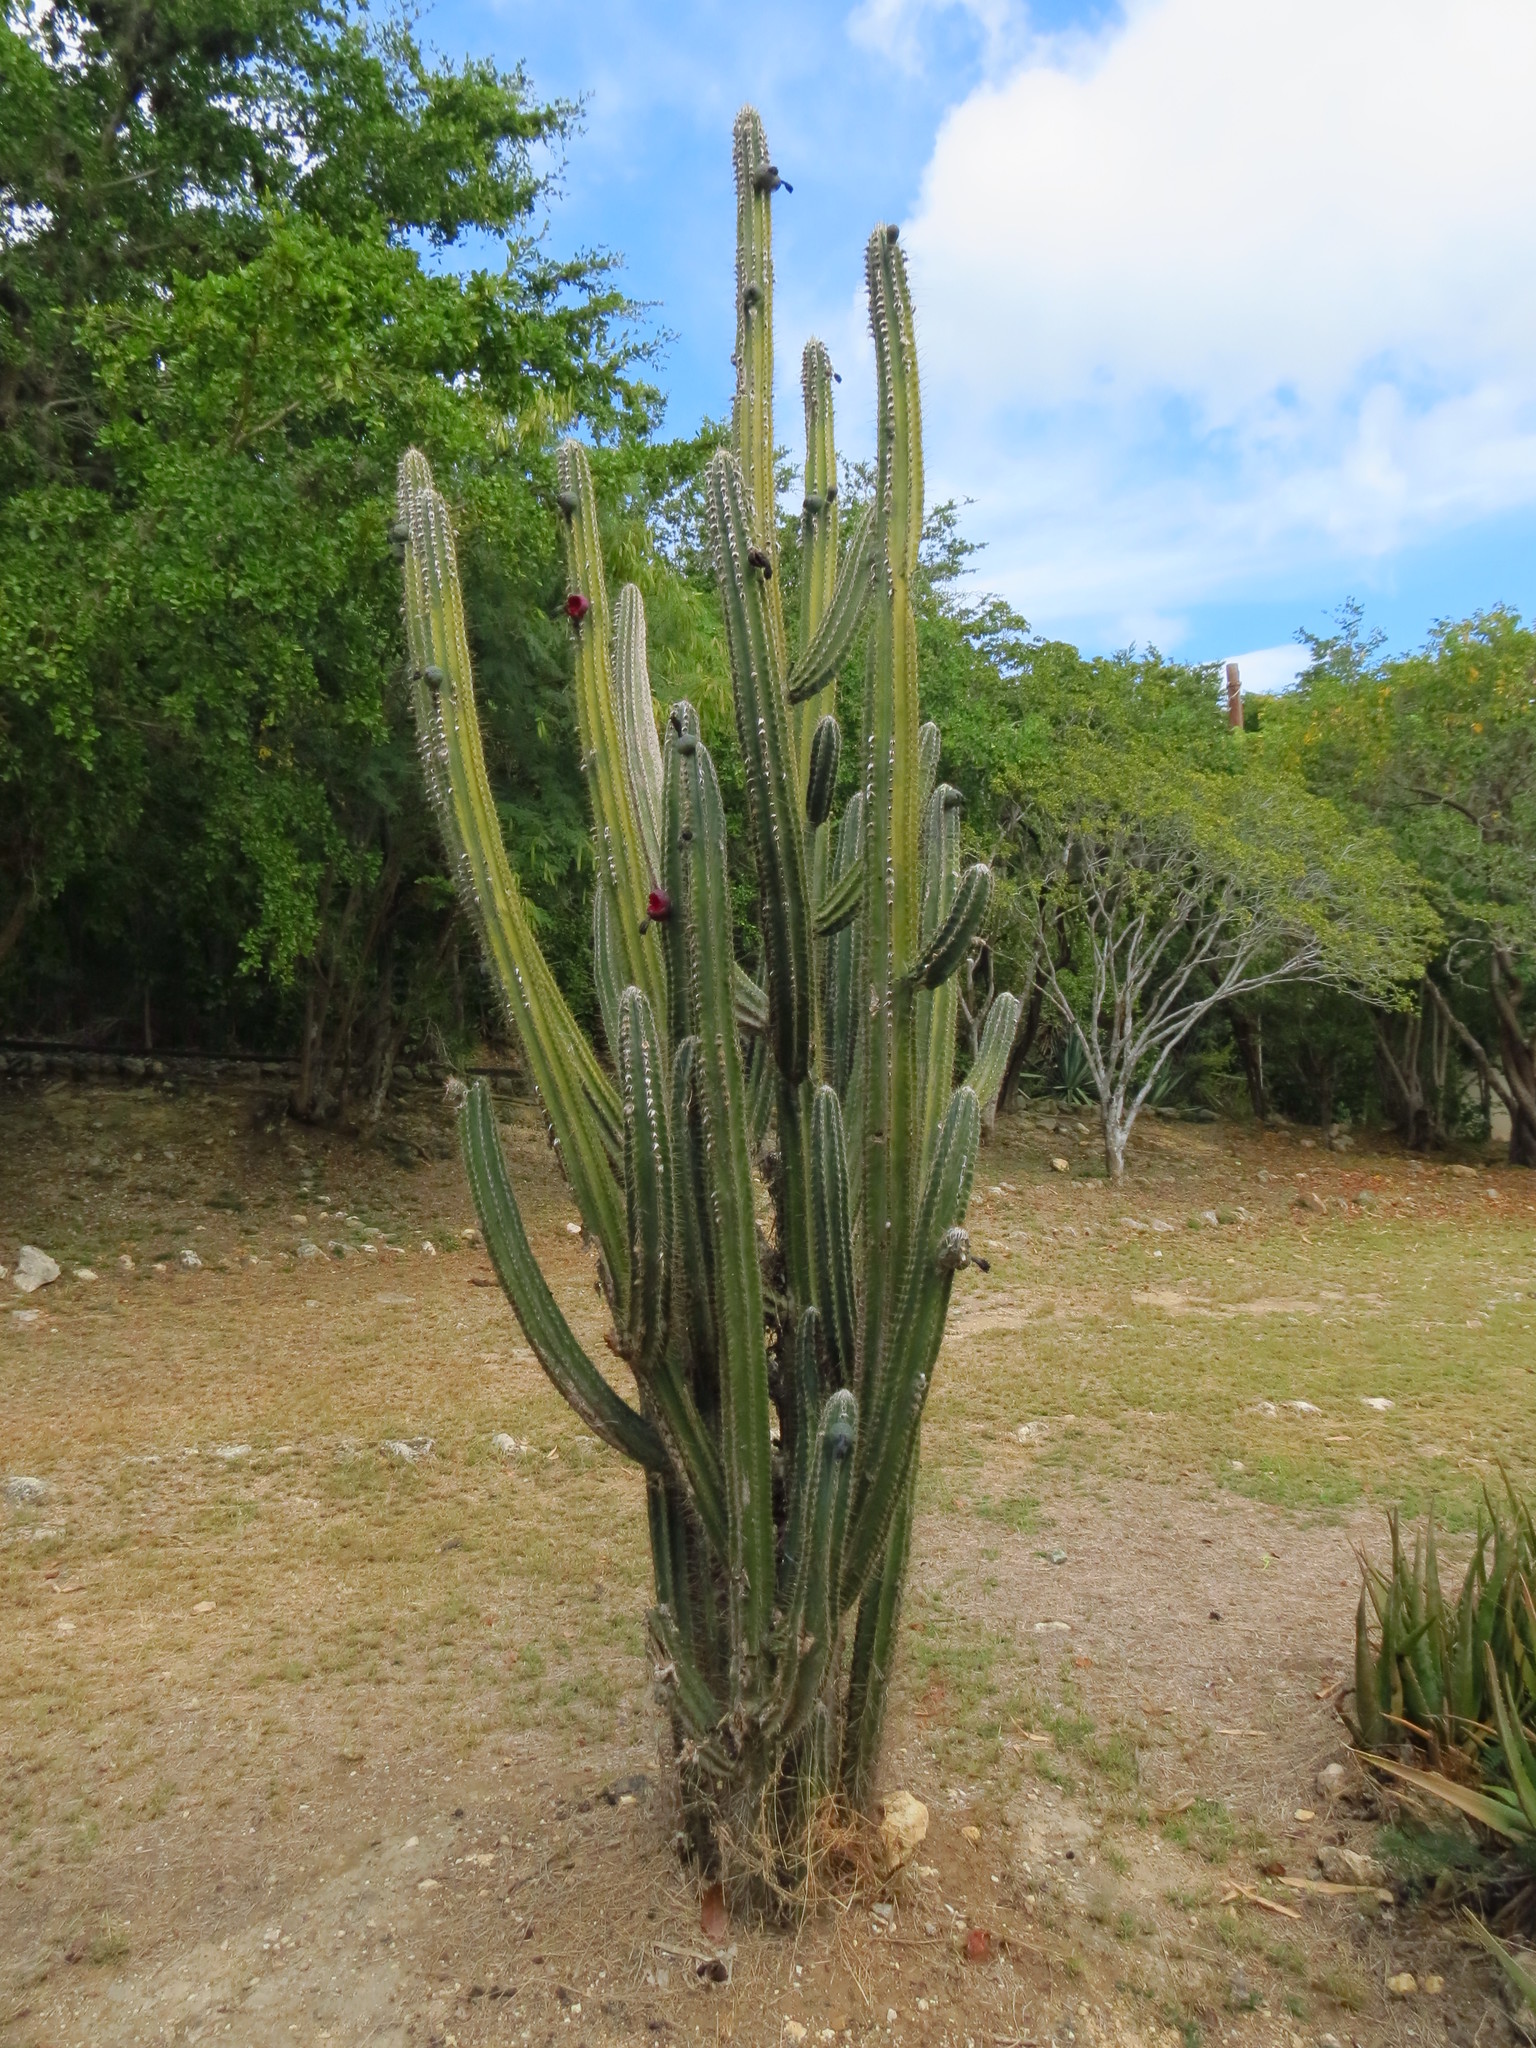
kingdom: Plantae
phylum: Tracheophyta
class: Magnoliopsida
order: Caryophyllales
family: Cactaceae
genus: Pilosocereus
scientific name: Pilosocereus armatus
